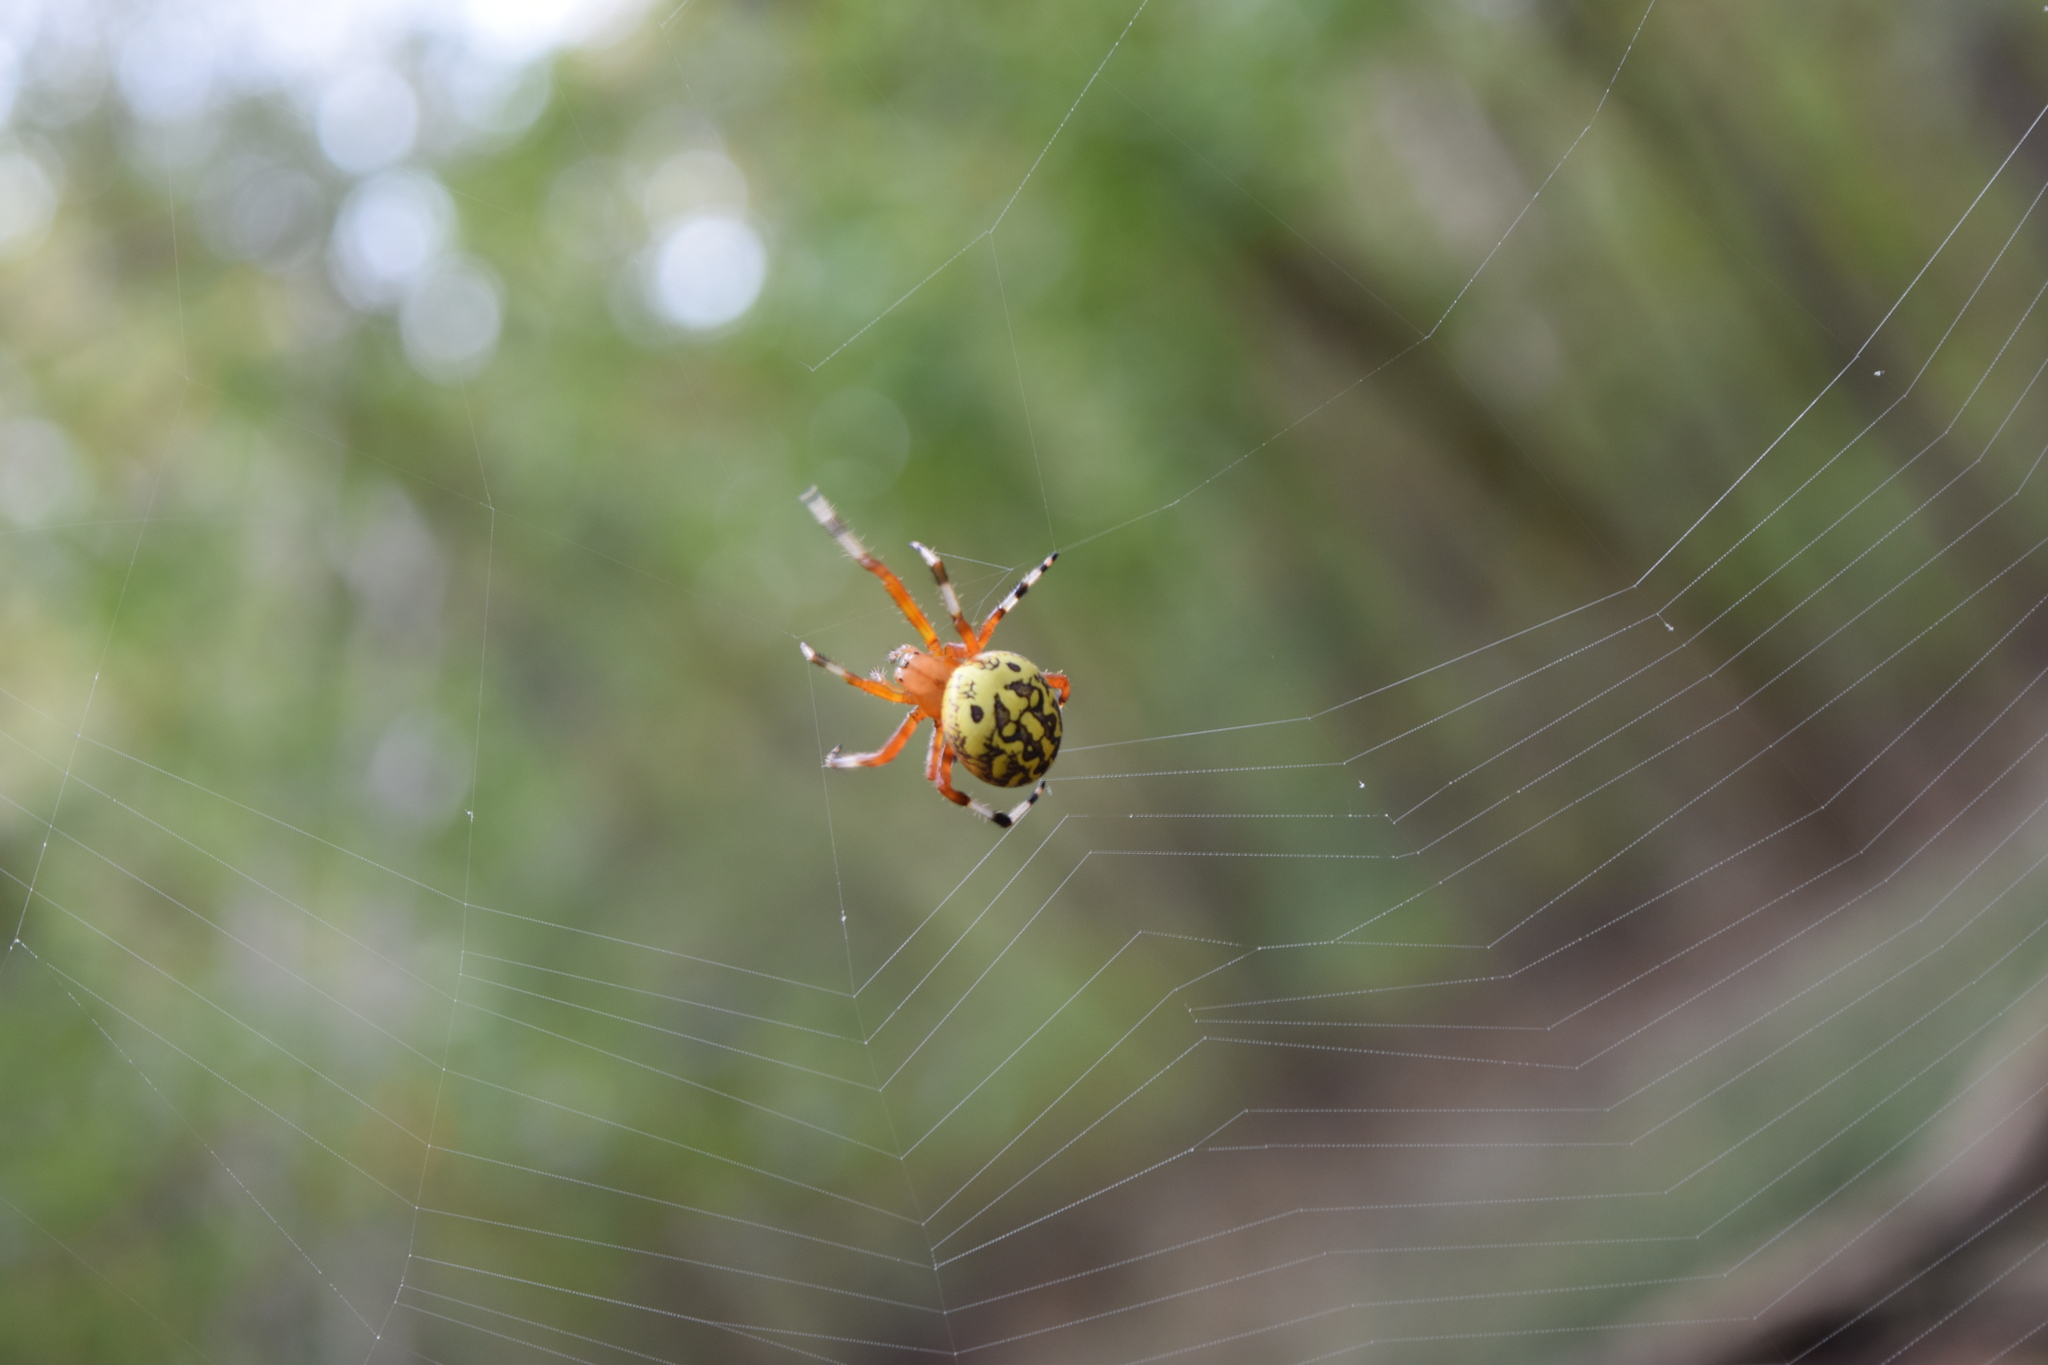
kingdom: Animalia
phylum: Arthropoda
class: Arachnida
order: Araneae
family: Araneidae
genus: Araneus
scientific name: Araneus marmoreus
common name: Marbled orbweaver
